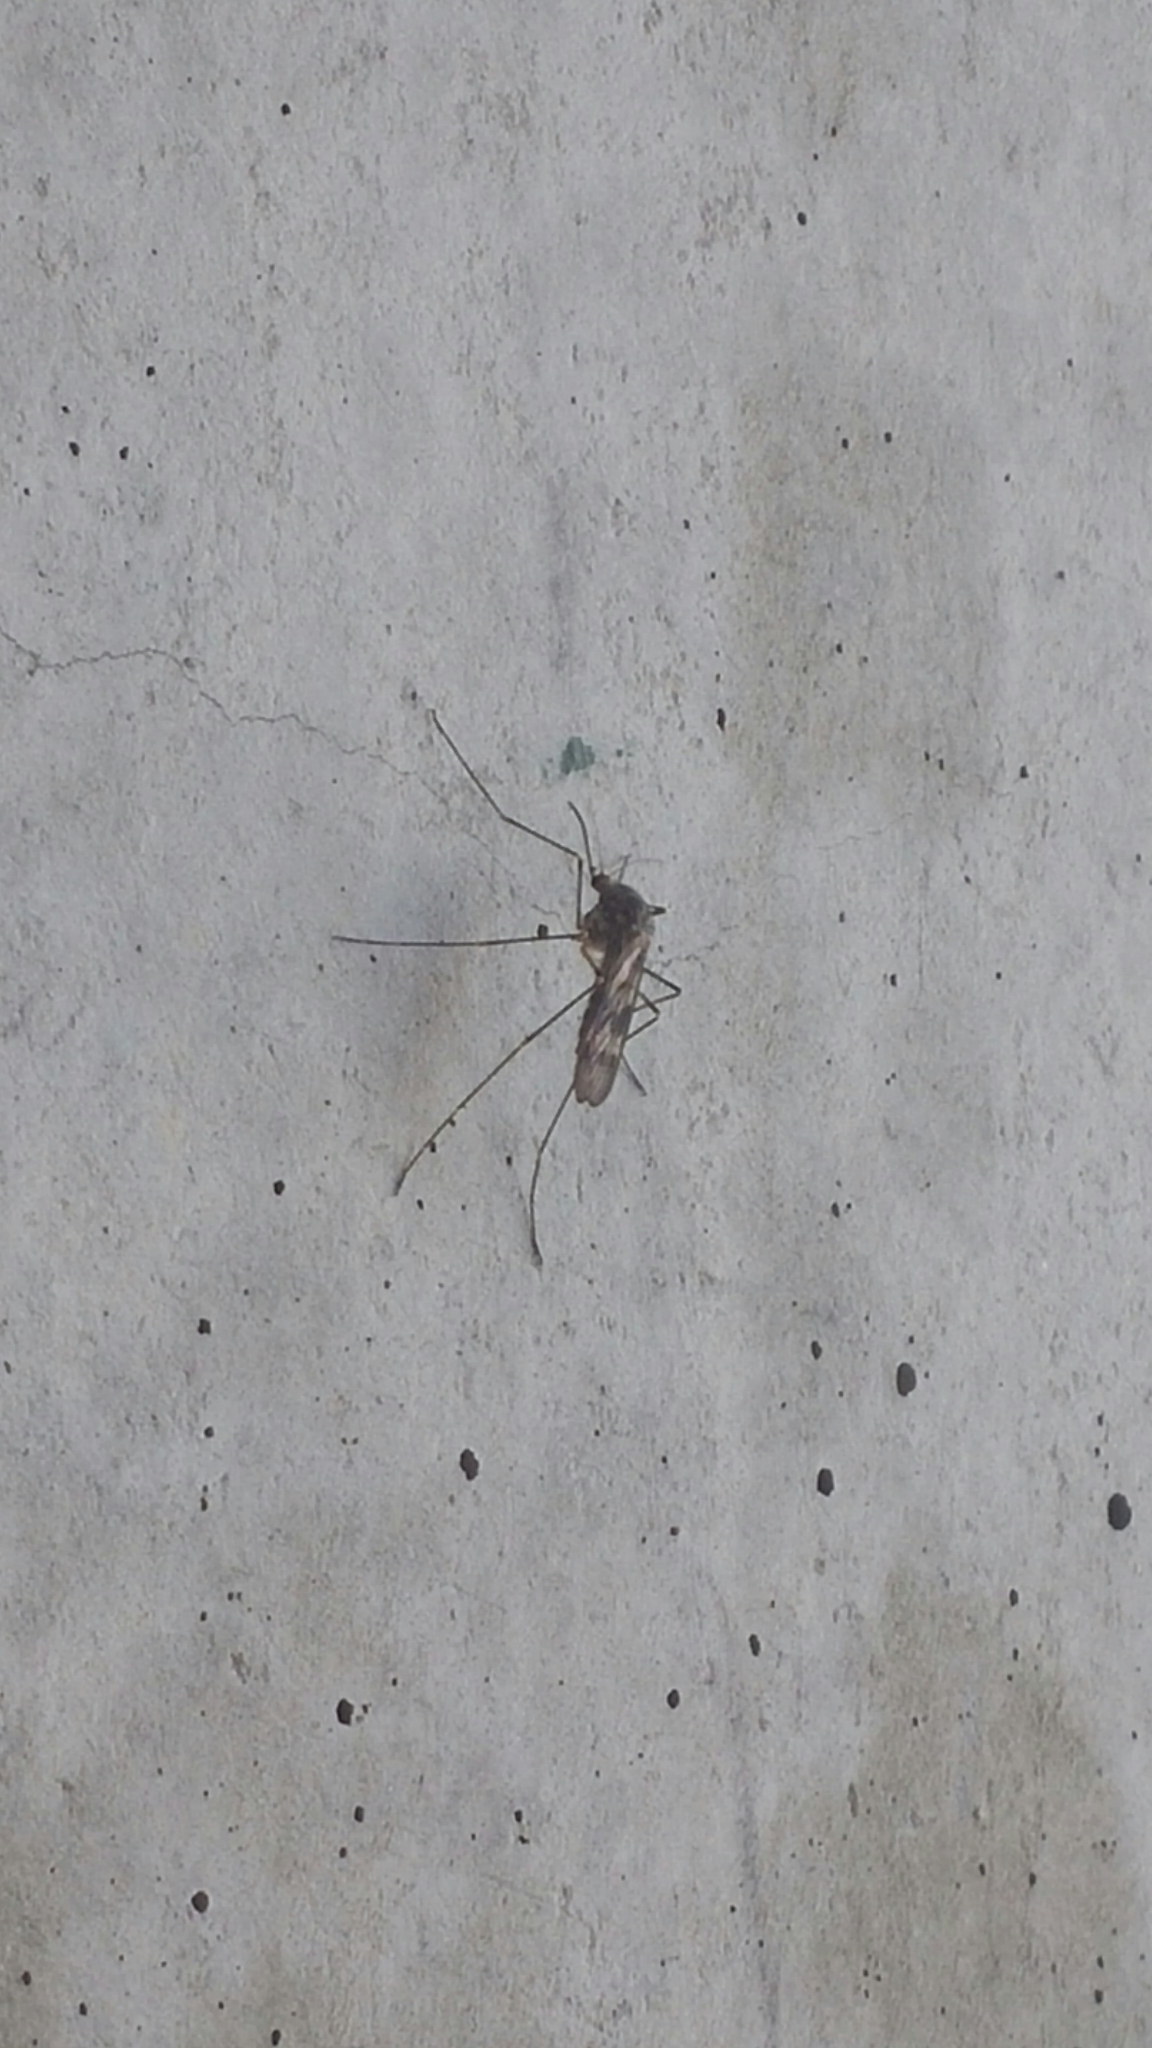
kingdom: Animalia
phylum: Arthropoda
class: Insecta
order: Diptera
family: Culicidae
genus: Culiseta
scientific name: Culiseta incidens
